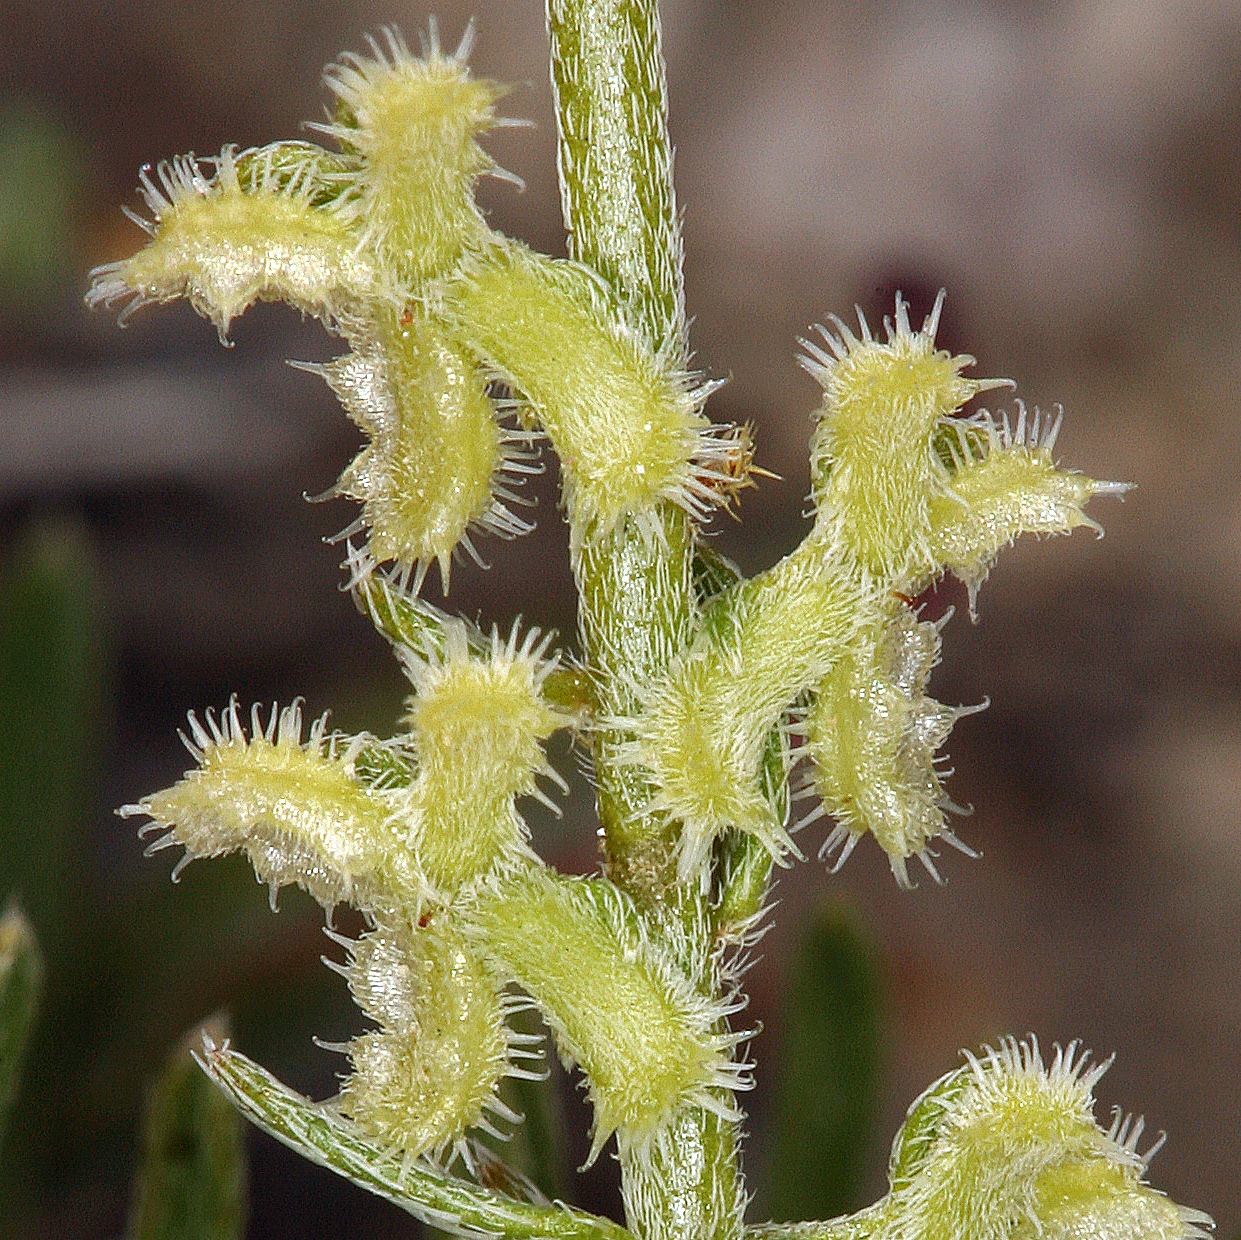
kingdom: Plantae
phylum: Tracheophyta
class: Magnoliopsida
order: Boraginales
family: Boraginaceae
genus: Pectocarya
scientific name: Pectocarya heterocarpa
